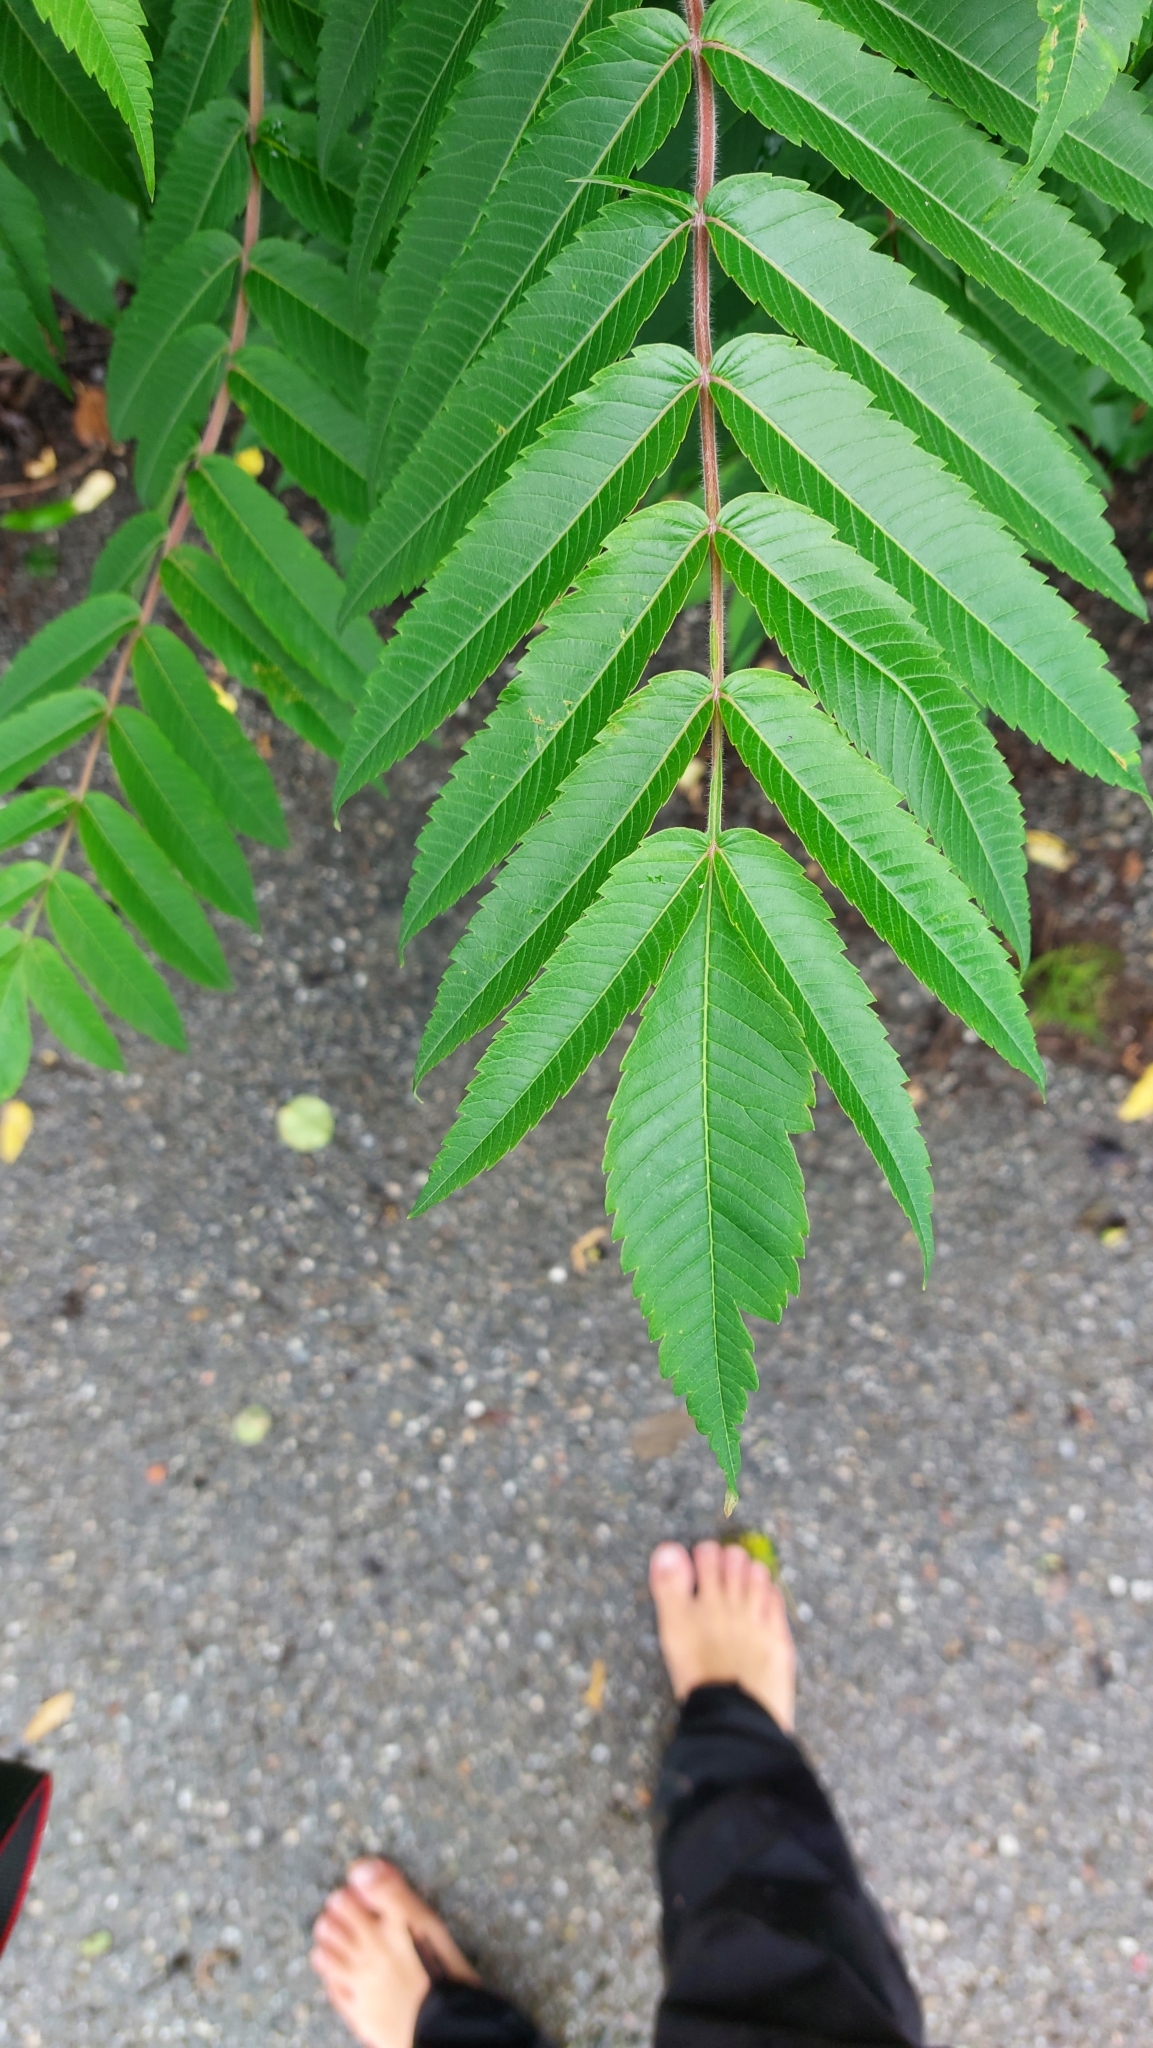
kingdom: Plantae
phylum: Tracheophyta
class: Magnoliopsida
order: Sapindales
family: Anacardiaceae
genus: Rhus
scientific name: Rhus typhina
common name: Staghorn sumac
